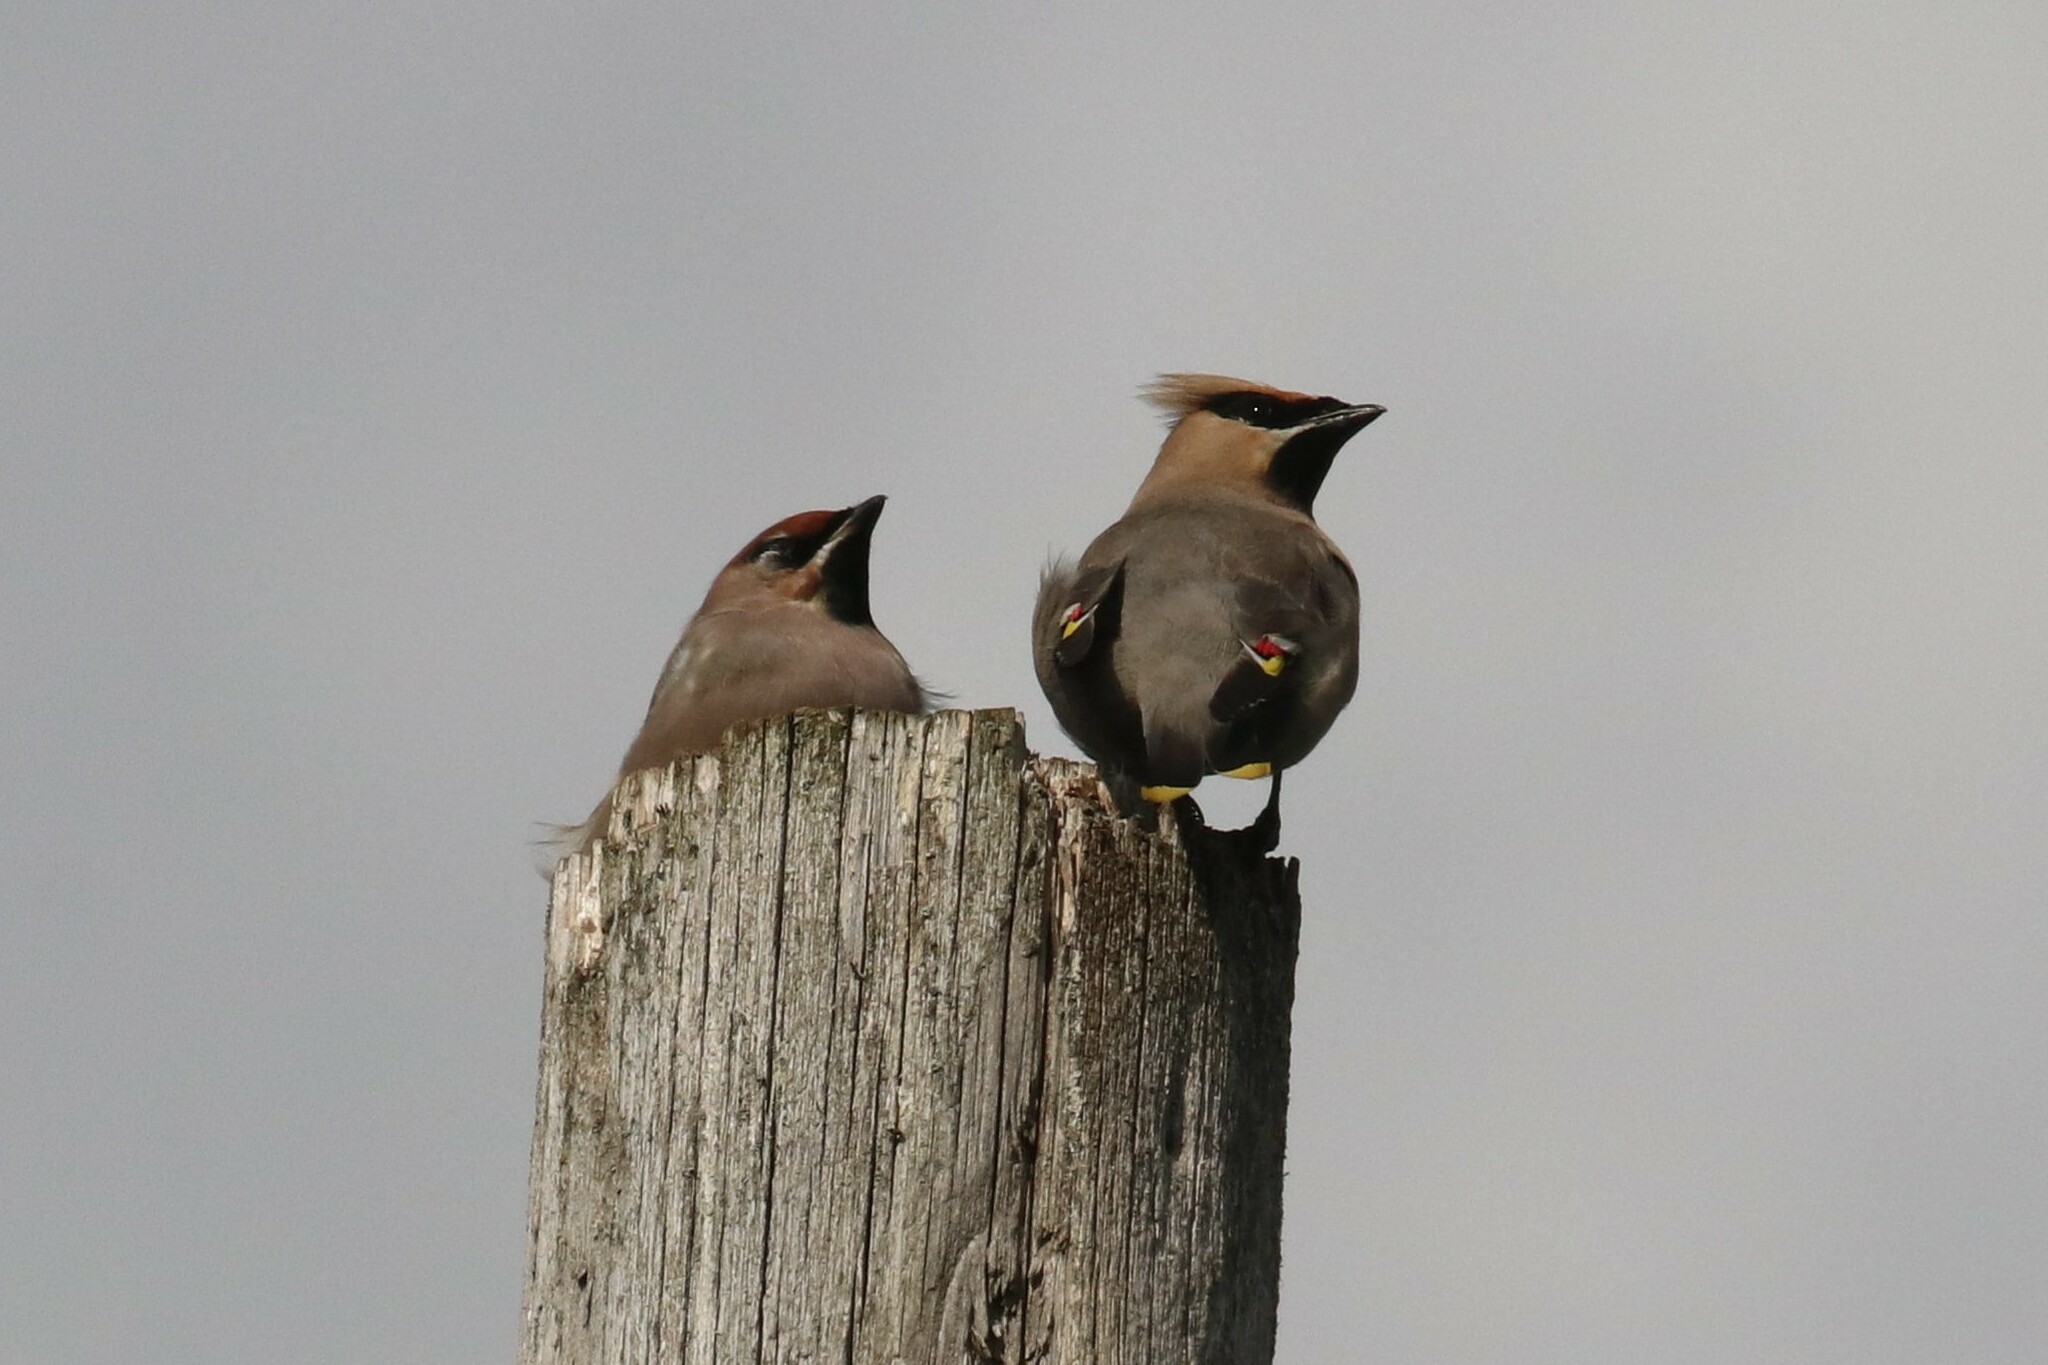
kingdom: Animalia
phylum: Chordata
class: Aves
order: Passeriformes
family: Bombycillidae
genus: Bombycilla
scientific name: Bombycilla garrulus
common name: Bohemian waxwing
